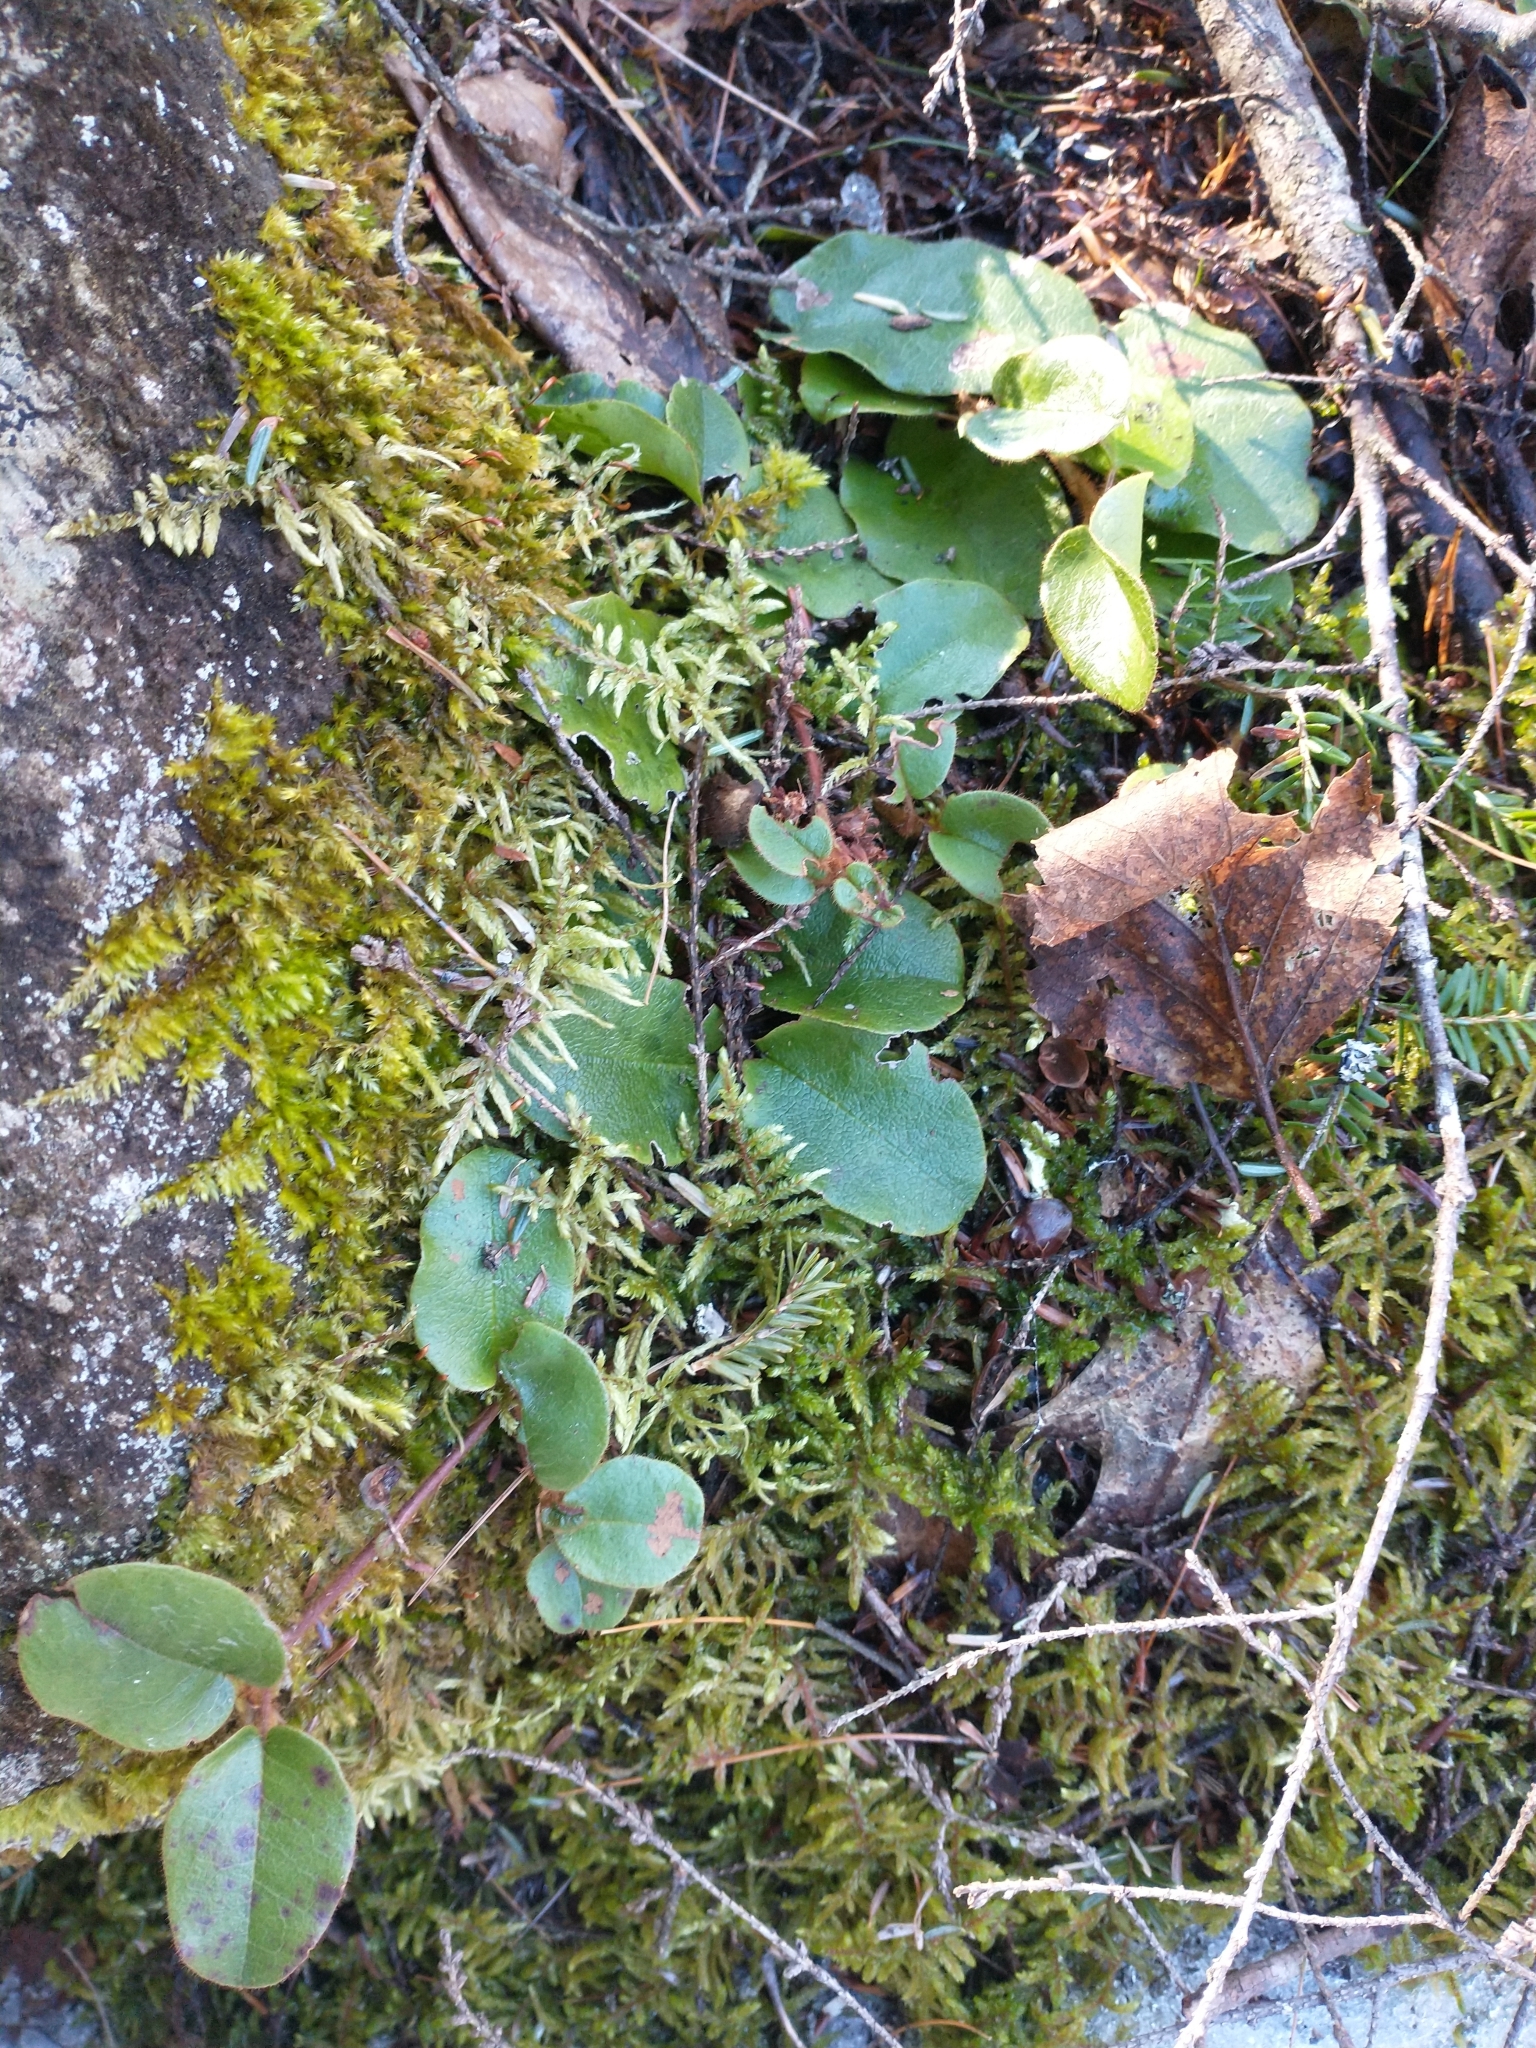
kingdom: Plantae
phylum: Tracheophyta
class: Magnoliopsida
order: Ericales
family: Ericaceae
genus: Epigaea
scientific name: Epigaea repens
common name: Gravelroot
